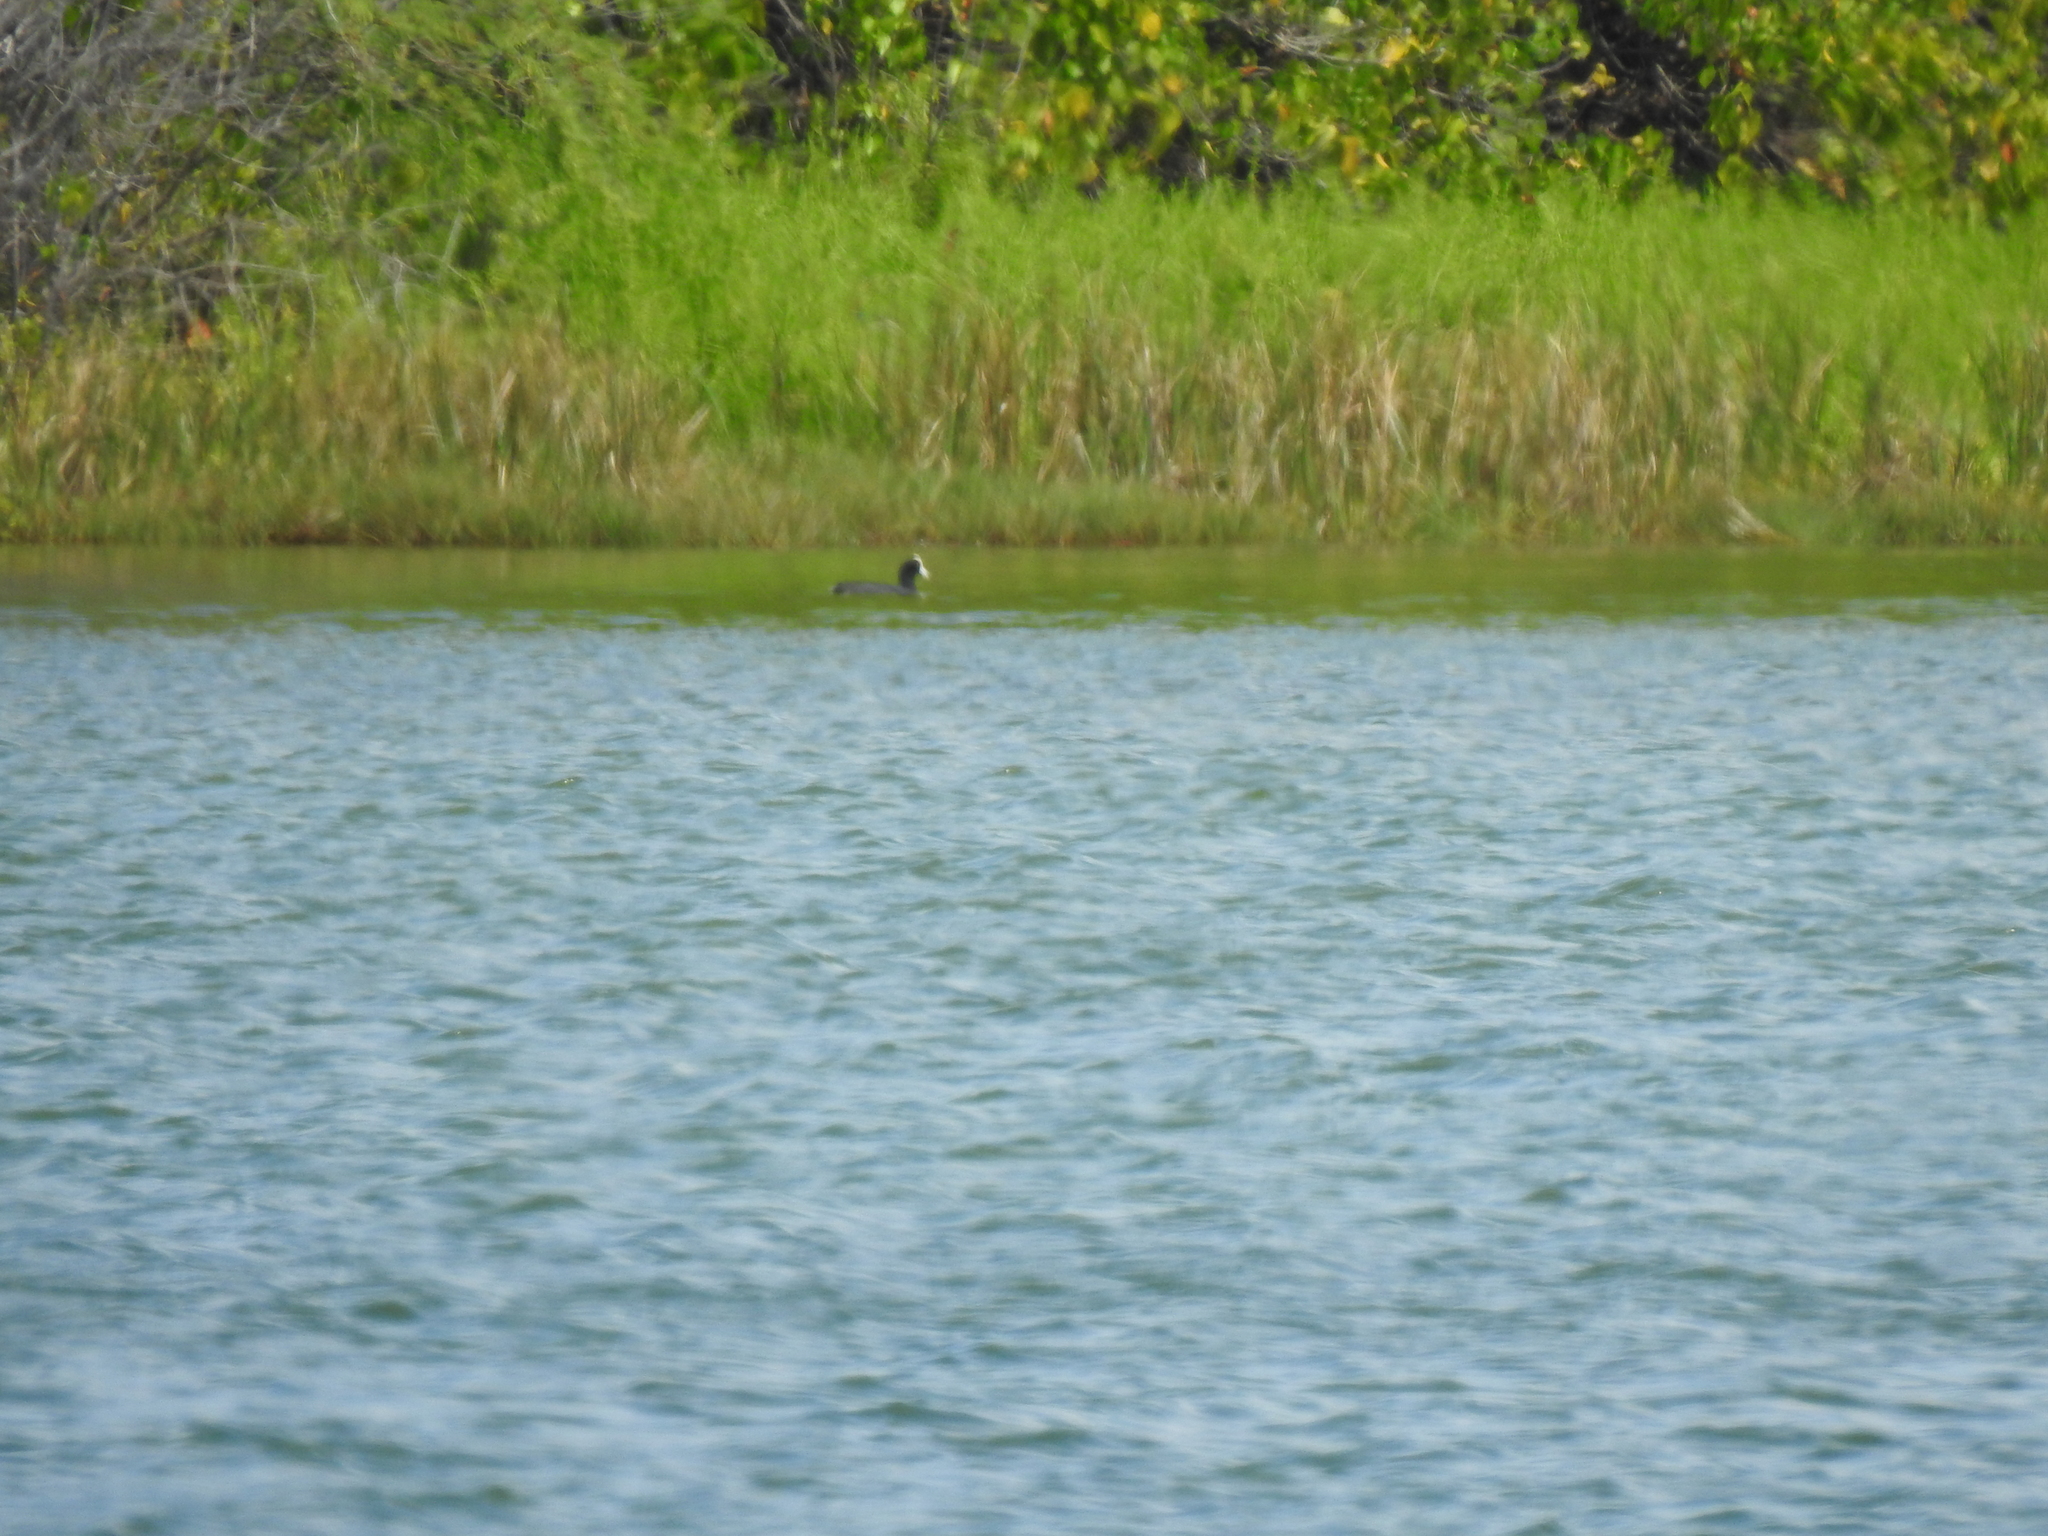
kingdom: Animalia
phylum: Chordata
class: Aves
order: Gruiformes
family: Rallidae
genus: Fulica
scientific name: Fulica alai
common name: Hawaiian coot
